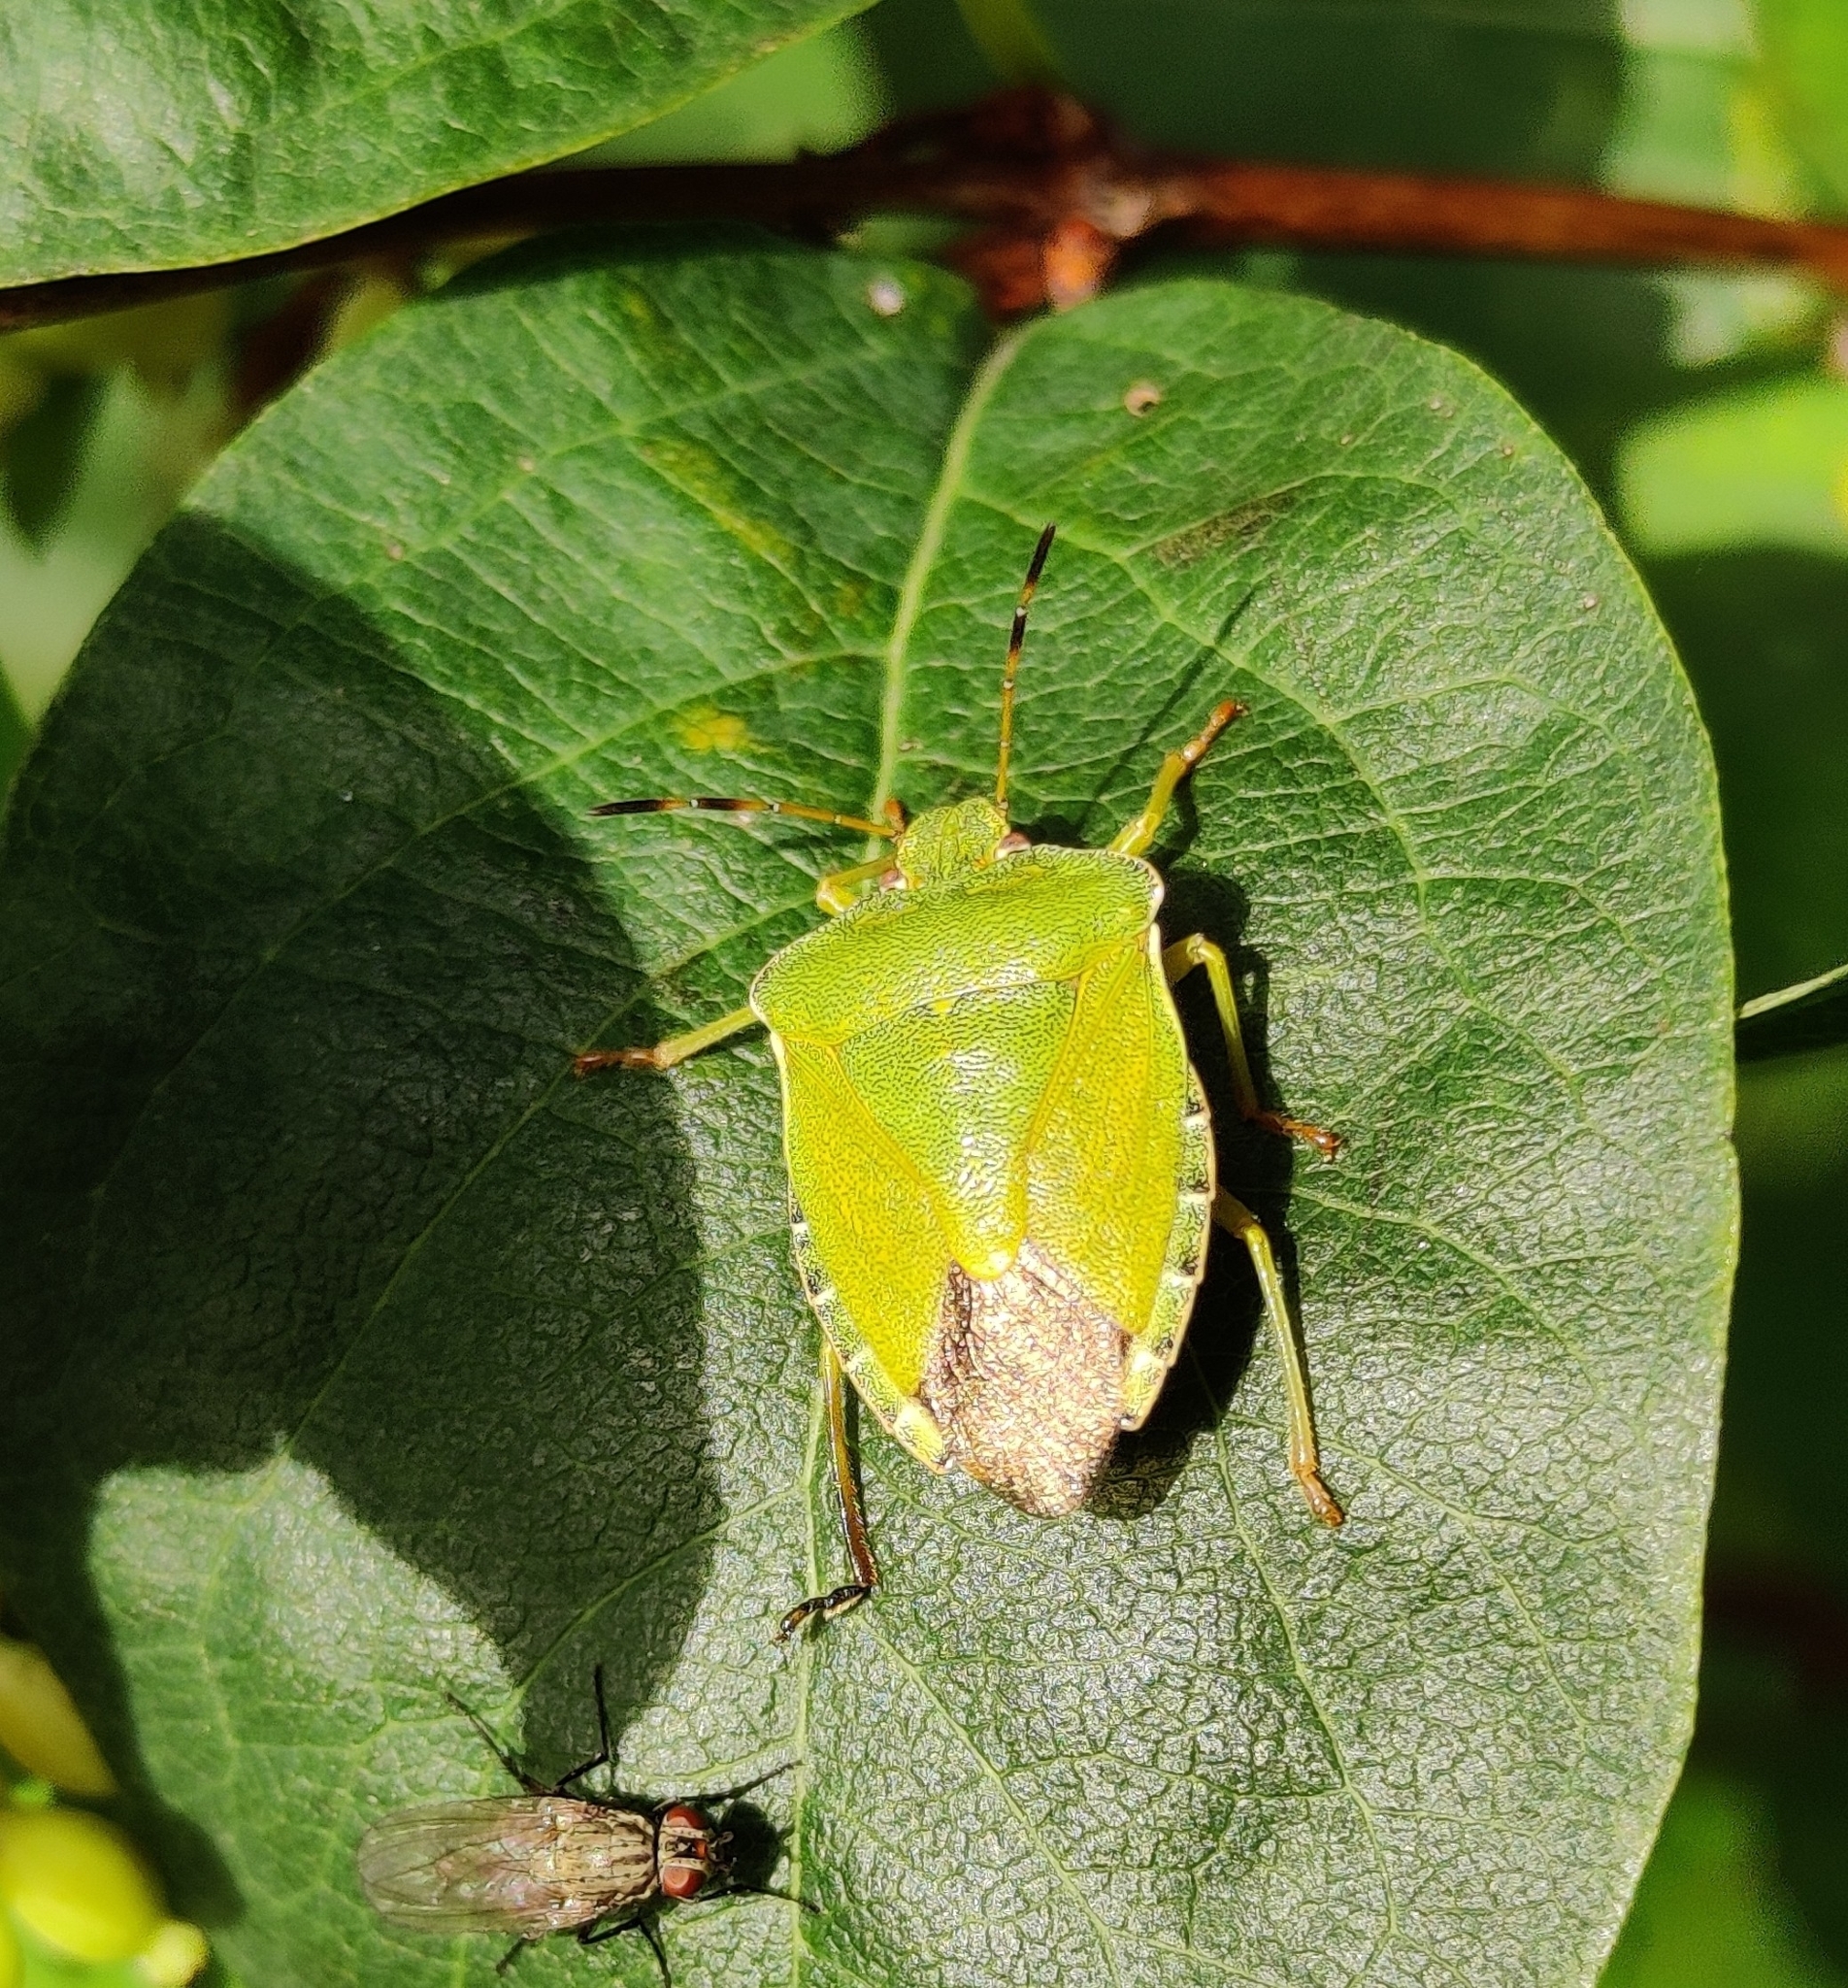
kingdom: Animalia
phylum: Arthropoda
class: Insecta
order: Hemiptera
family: Pentatomidae
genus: Palomena
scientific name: Palomena prasina
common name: Green shieldbug
